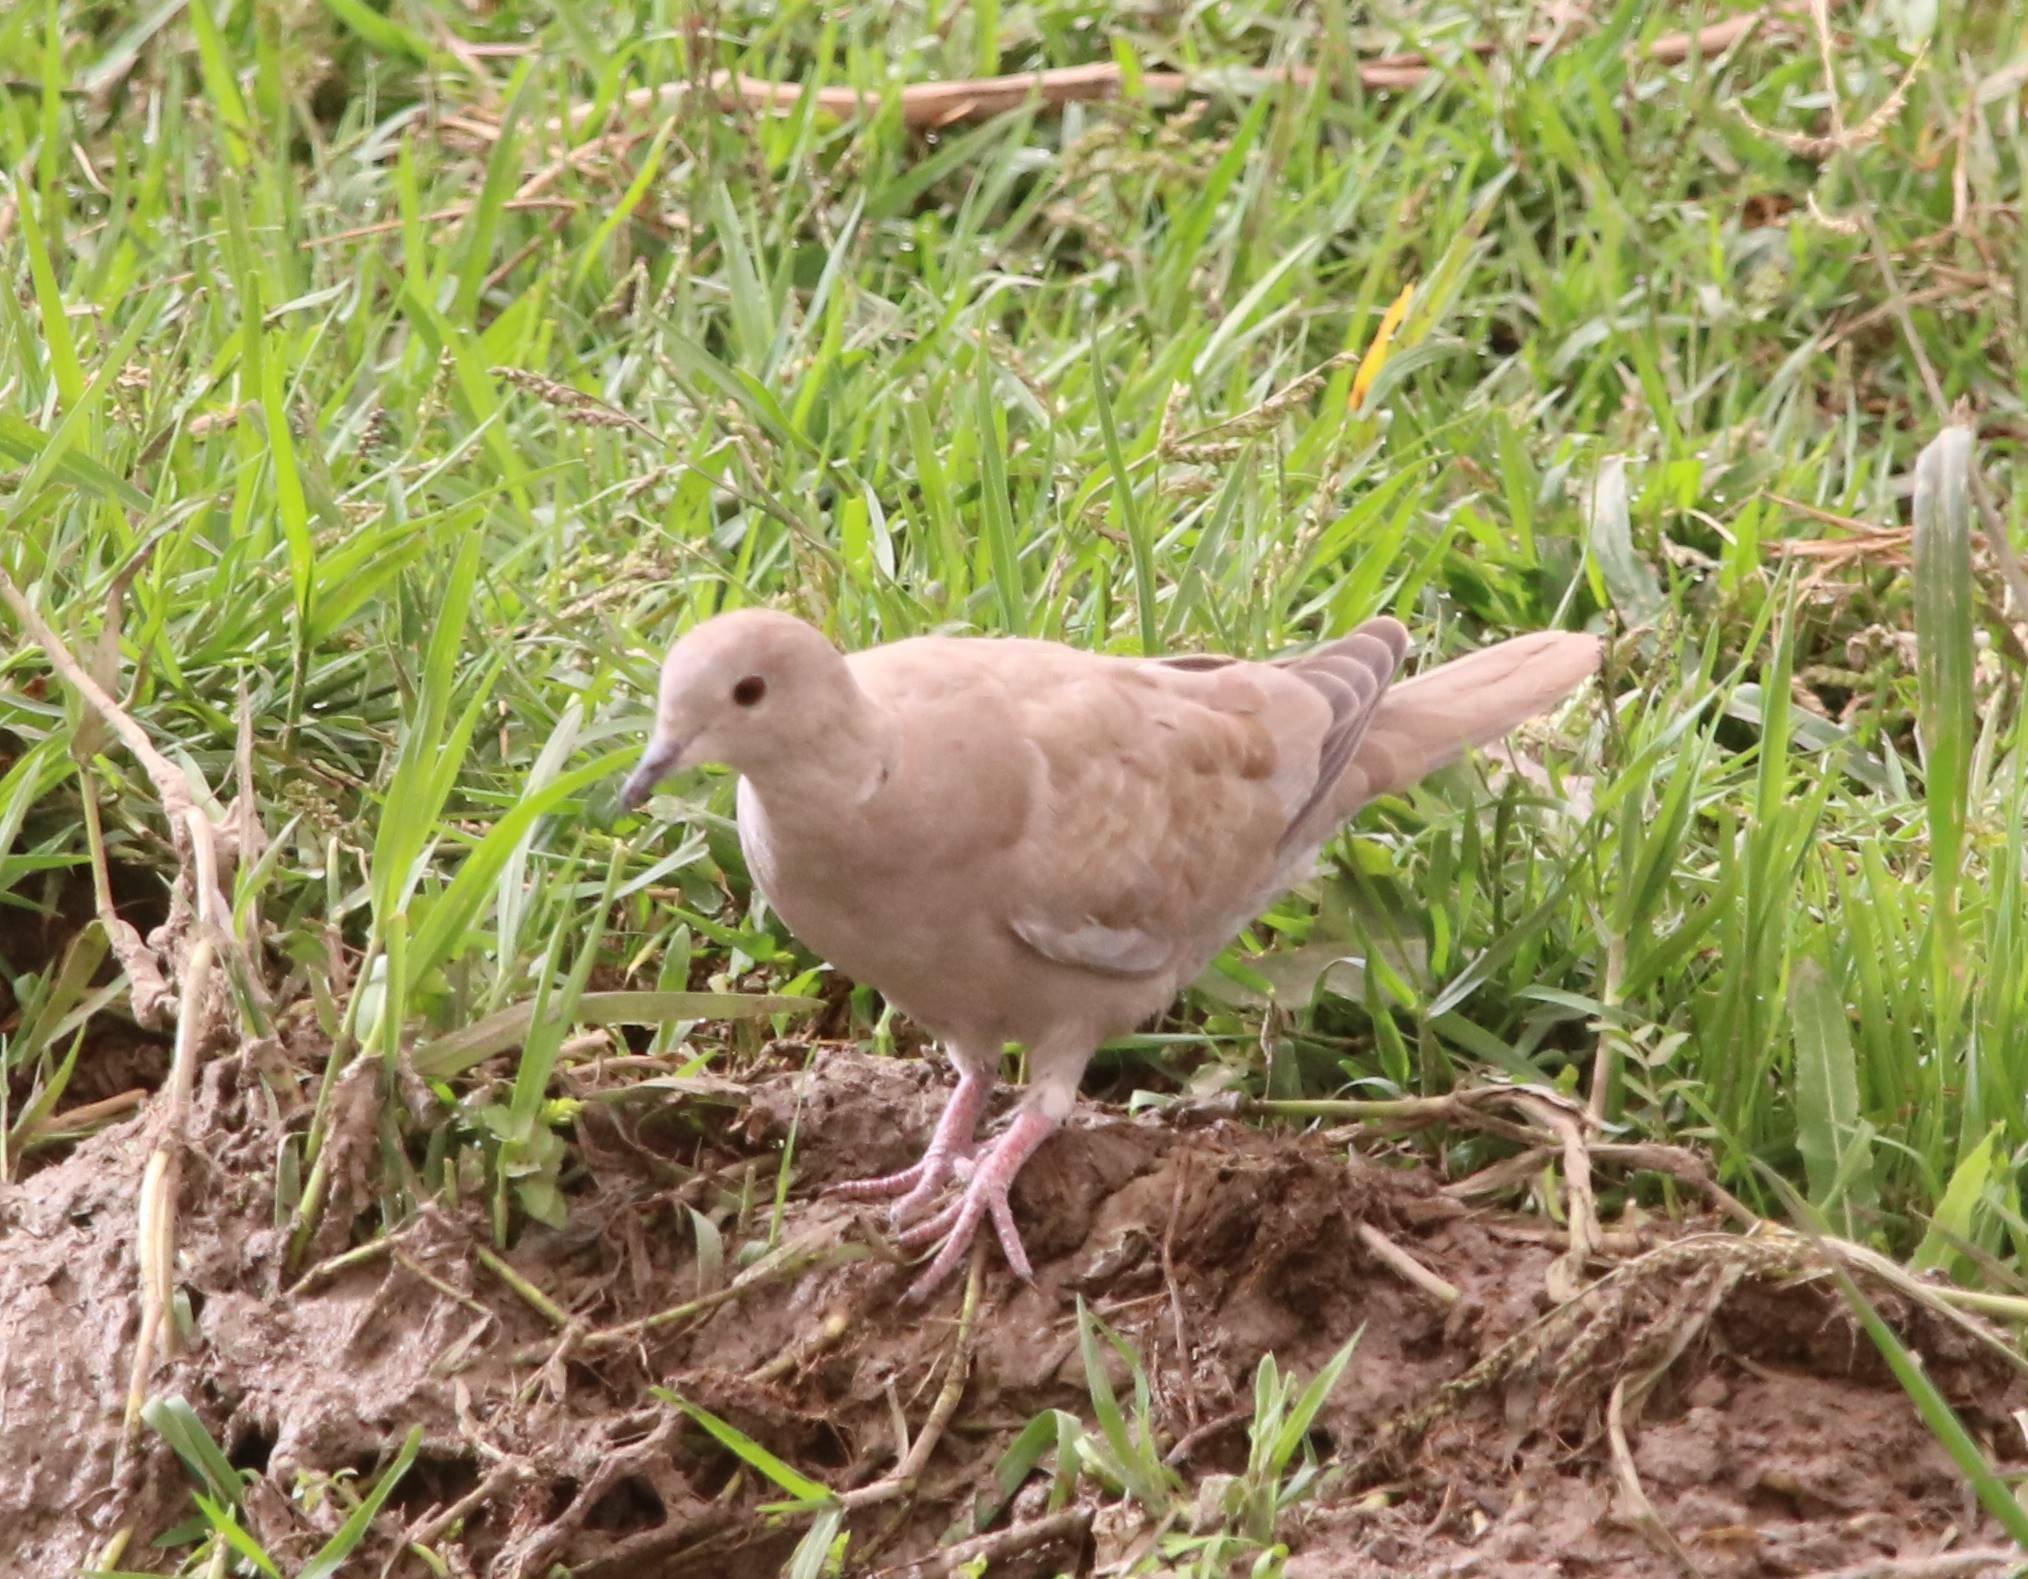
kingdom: Animalia
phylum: Chordata
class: Aves
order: Columbiformes
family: Columbidae
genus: Streptopelia
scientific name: Streptopelia decaocto
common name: Eurasian collared dove
